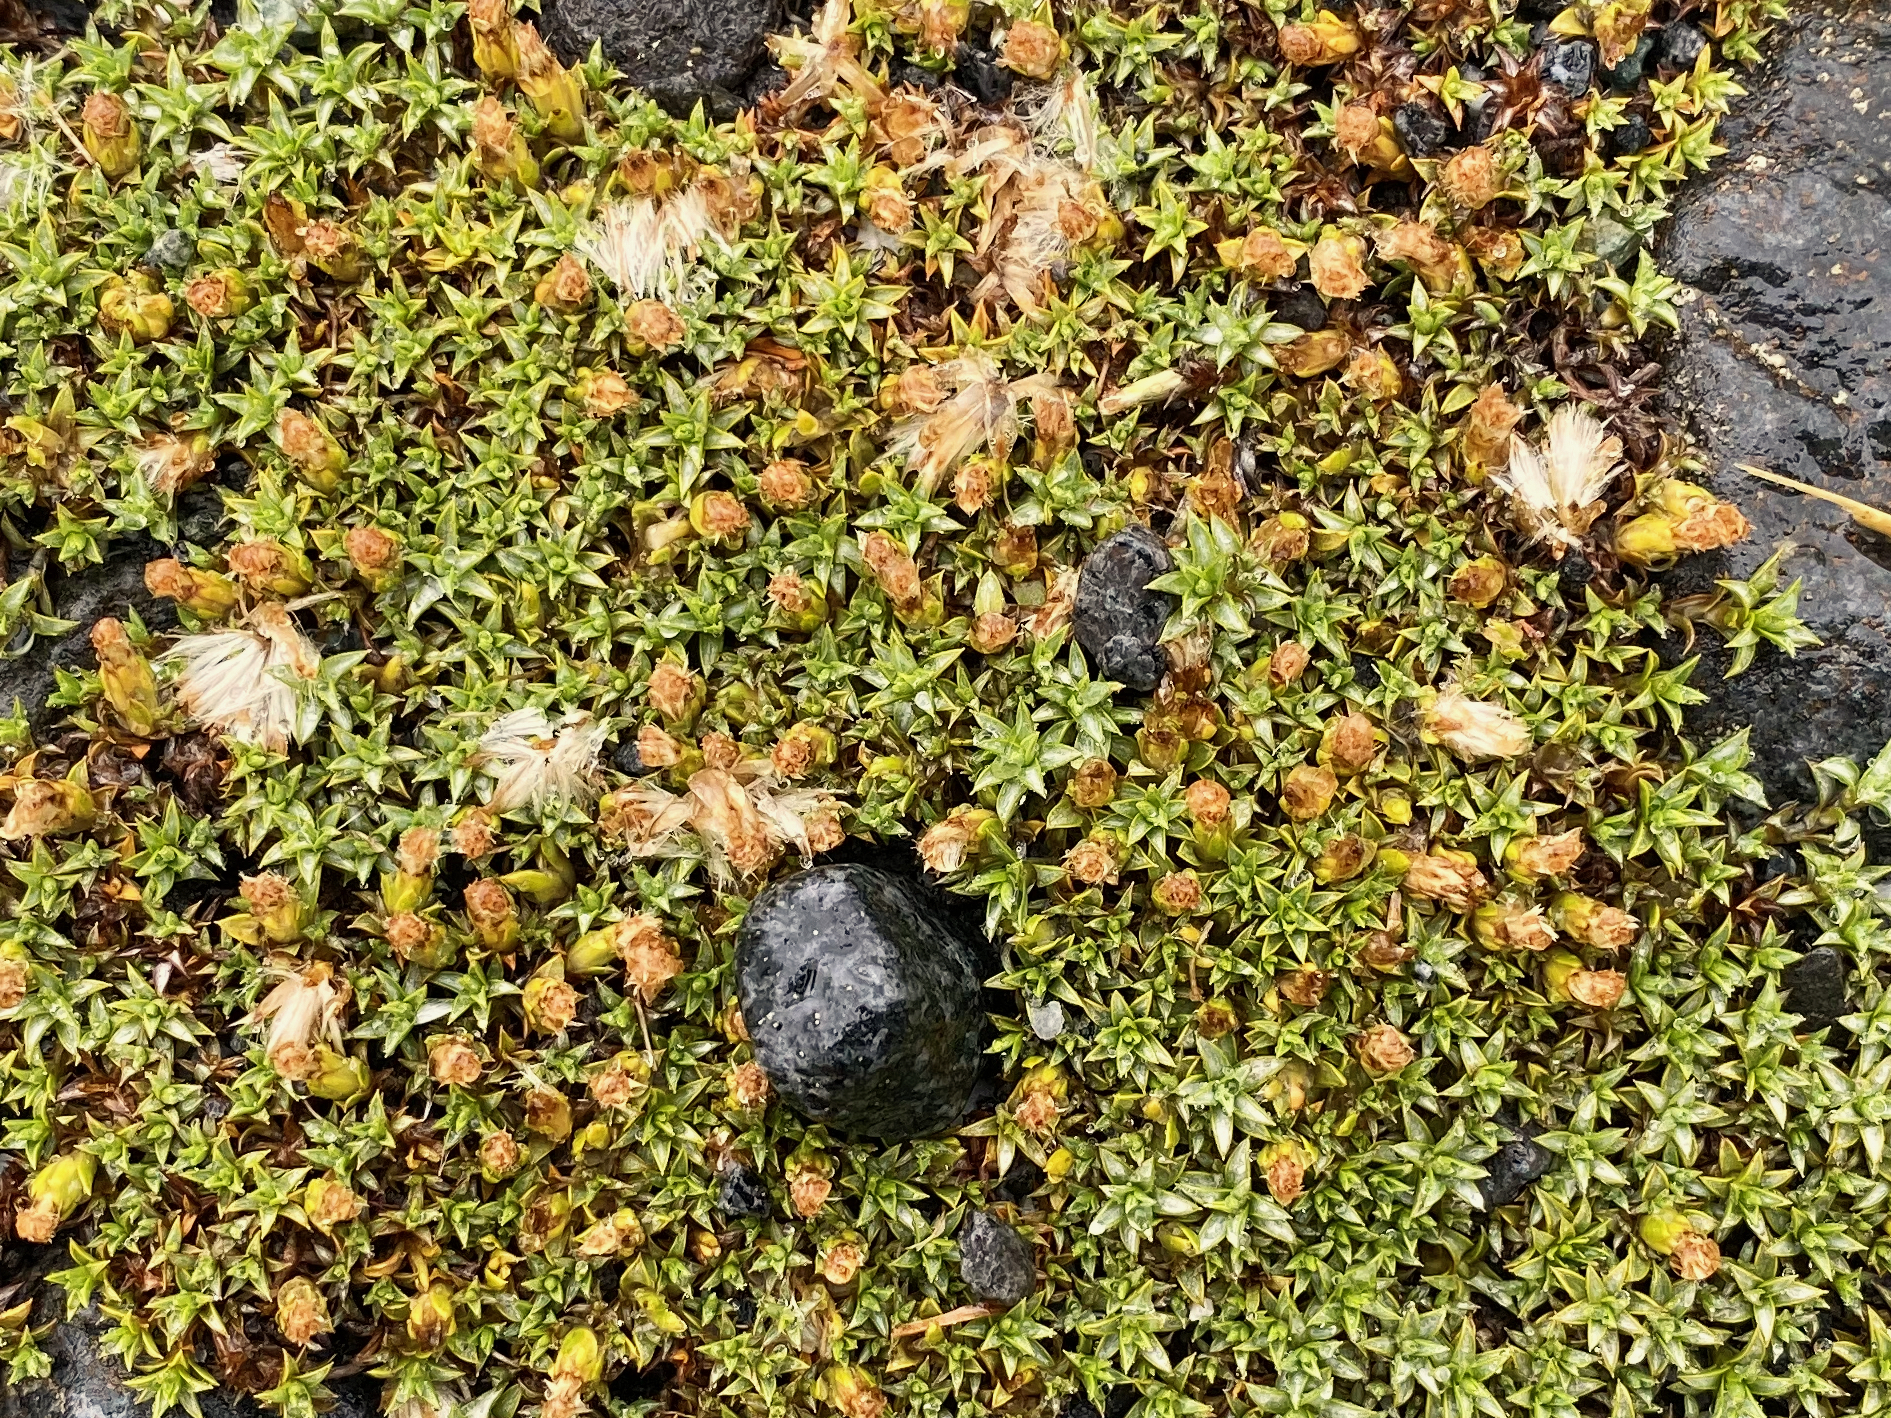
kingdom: Plantae
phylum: Tracheophyta
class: Magnoliopsida
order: Asterales
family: Asteraceae
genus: Raoulia
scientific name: Raoulia tenuicaulis
